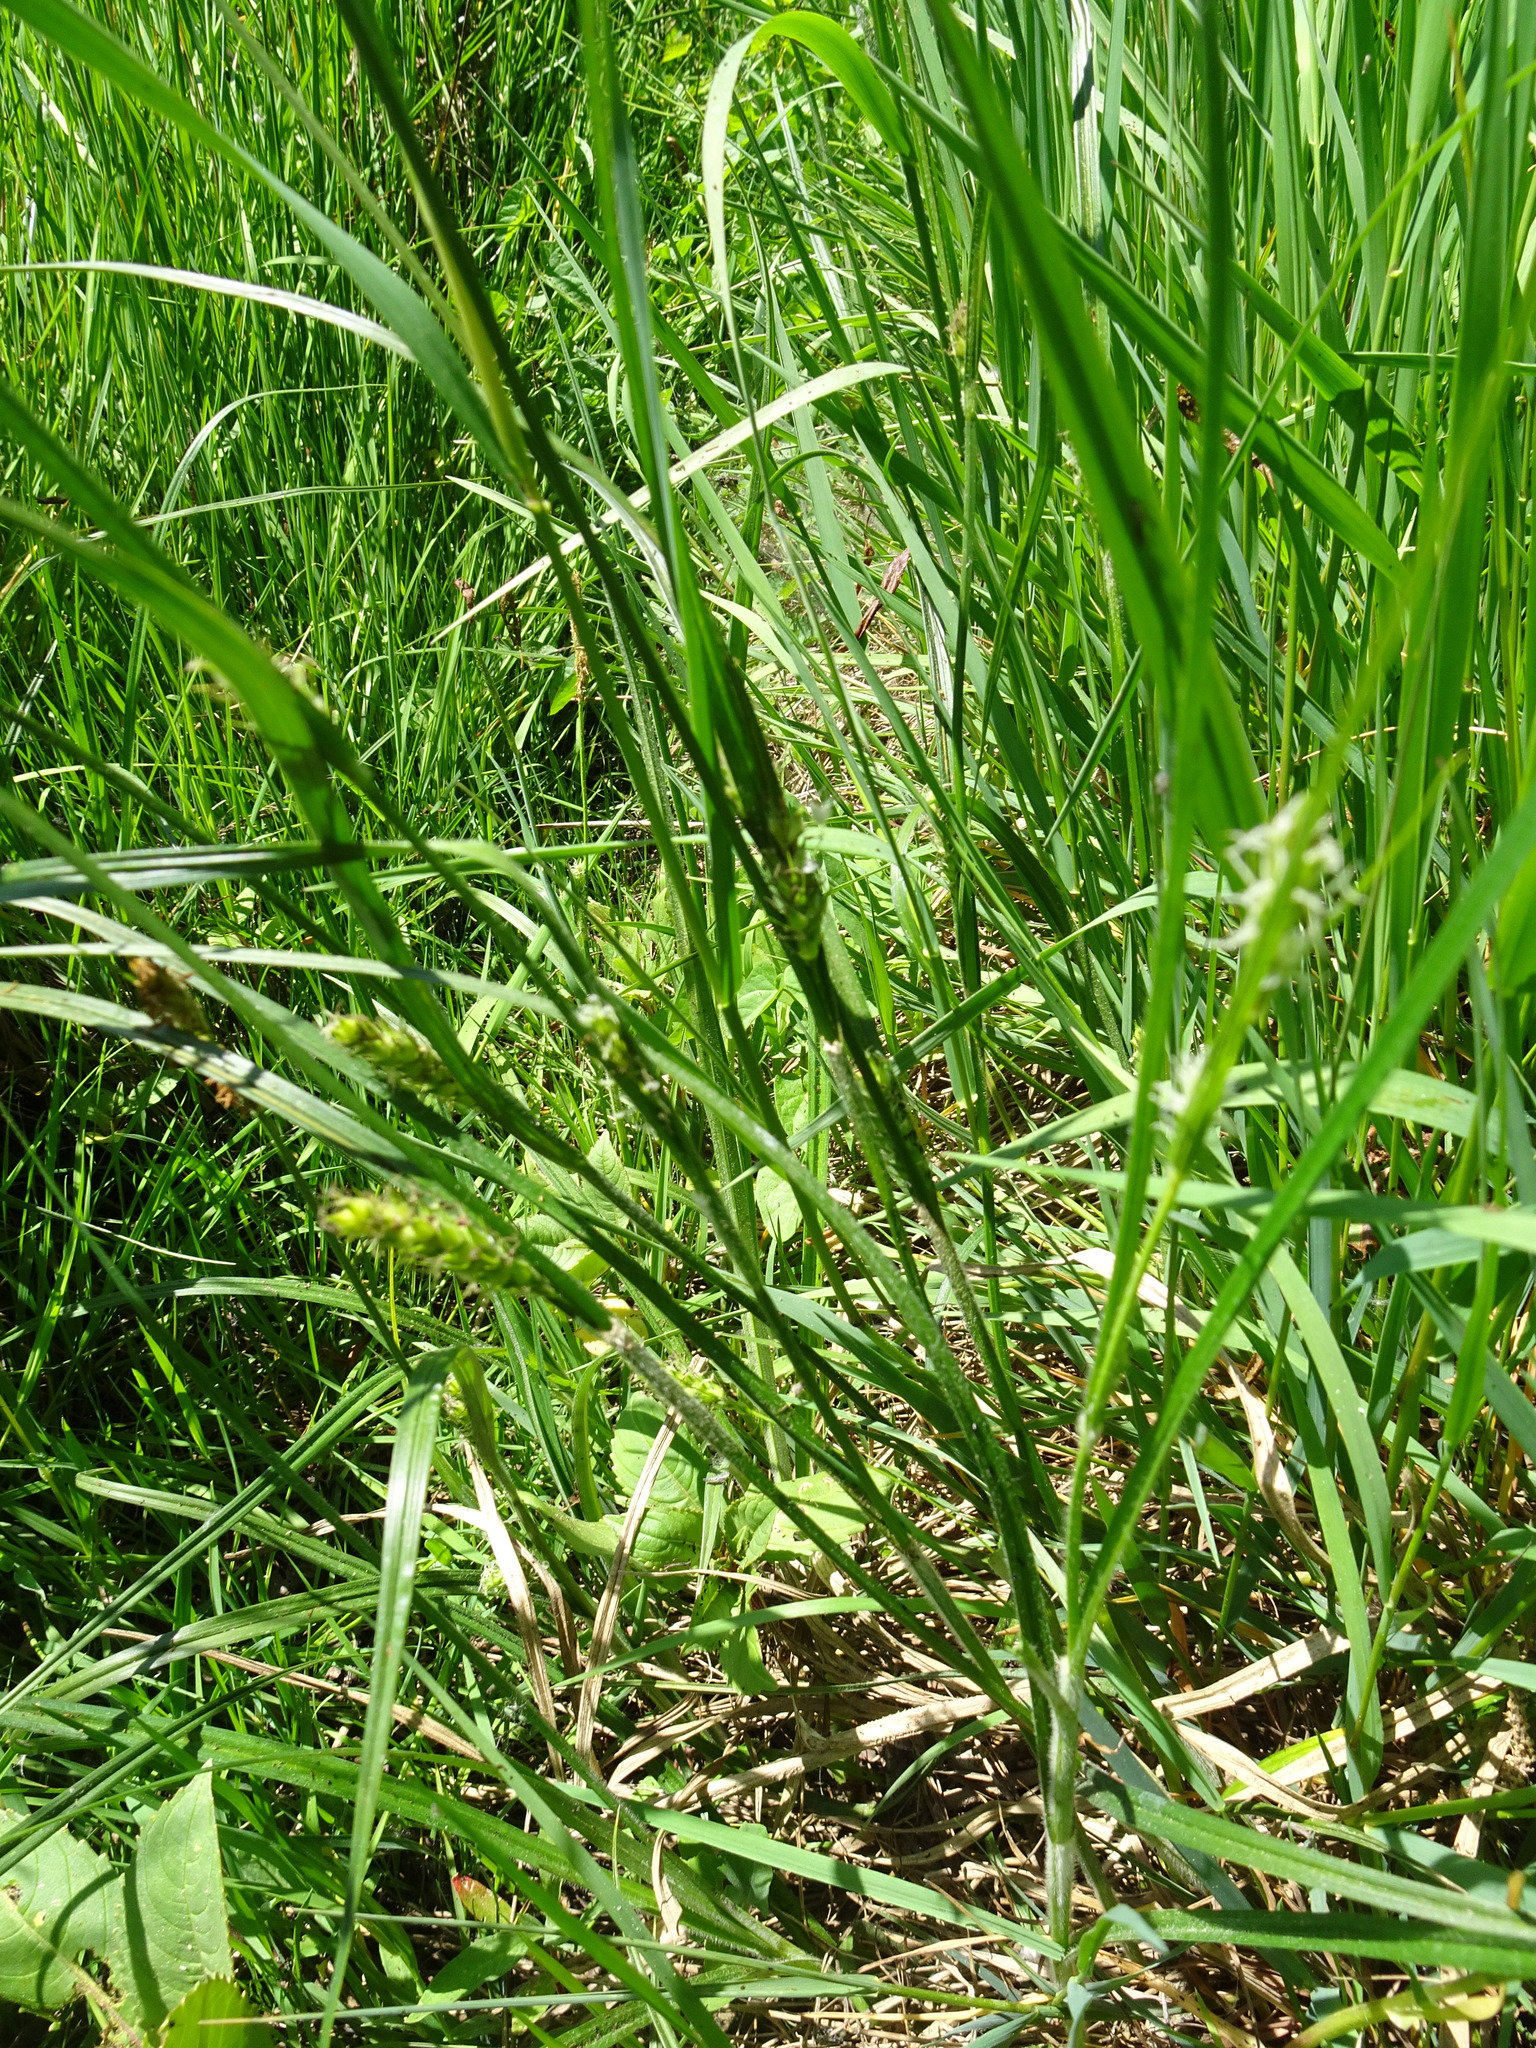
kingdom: Plantae
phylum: Tracheophyta
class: Liliopsida
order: Poales
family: Cyperaceae
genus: Carex
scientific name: Carex hirta
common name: Hairy sedge
